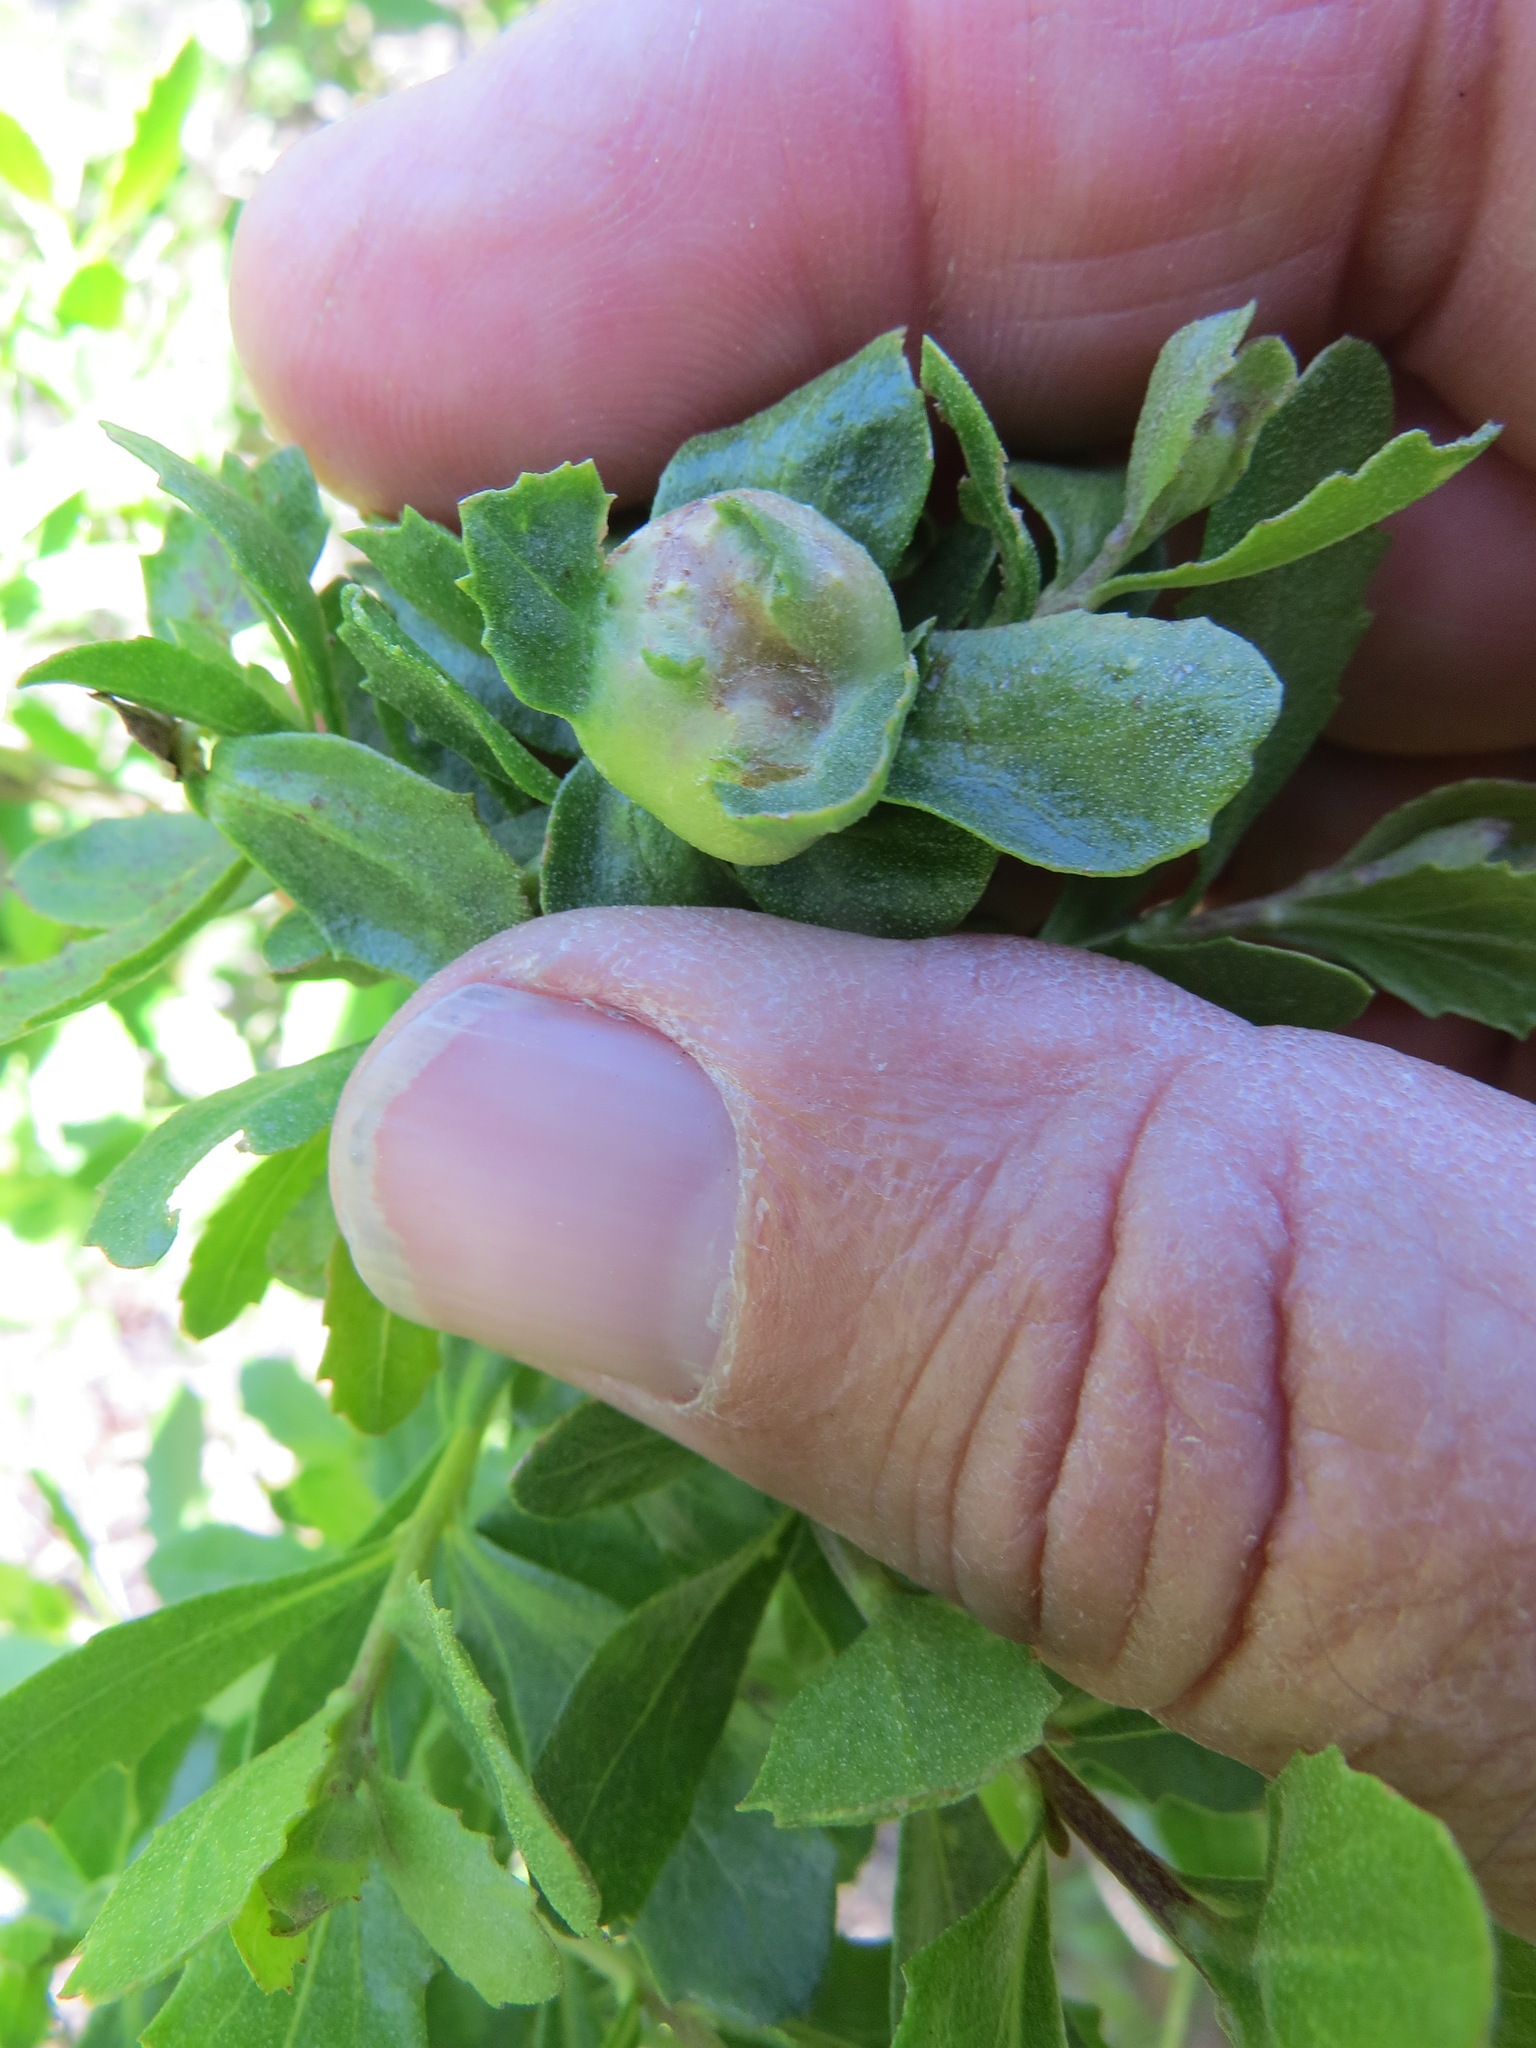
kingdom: Animalia
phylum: Arthropoda
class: Insecta
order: Diptera
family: Cecidomyiidae
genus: Rhopalomyia
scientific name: Rhopalomyia californica
